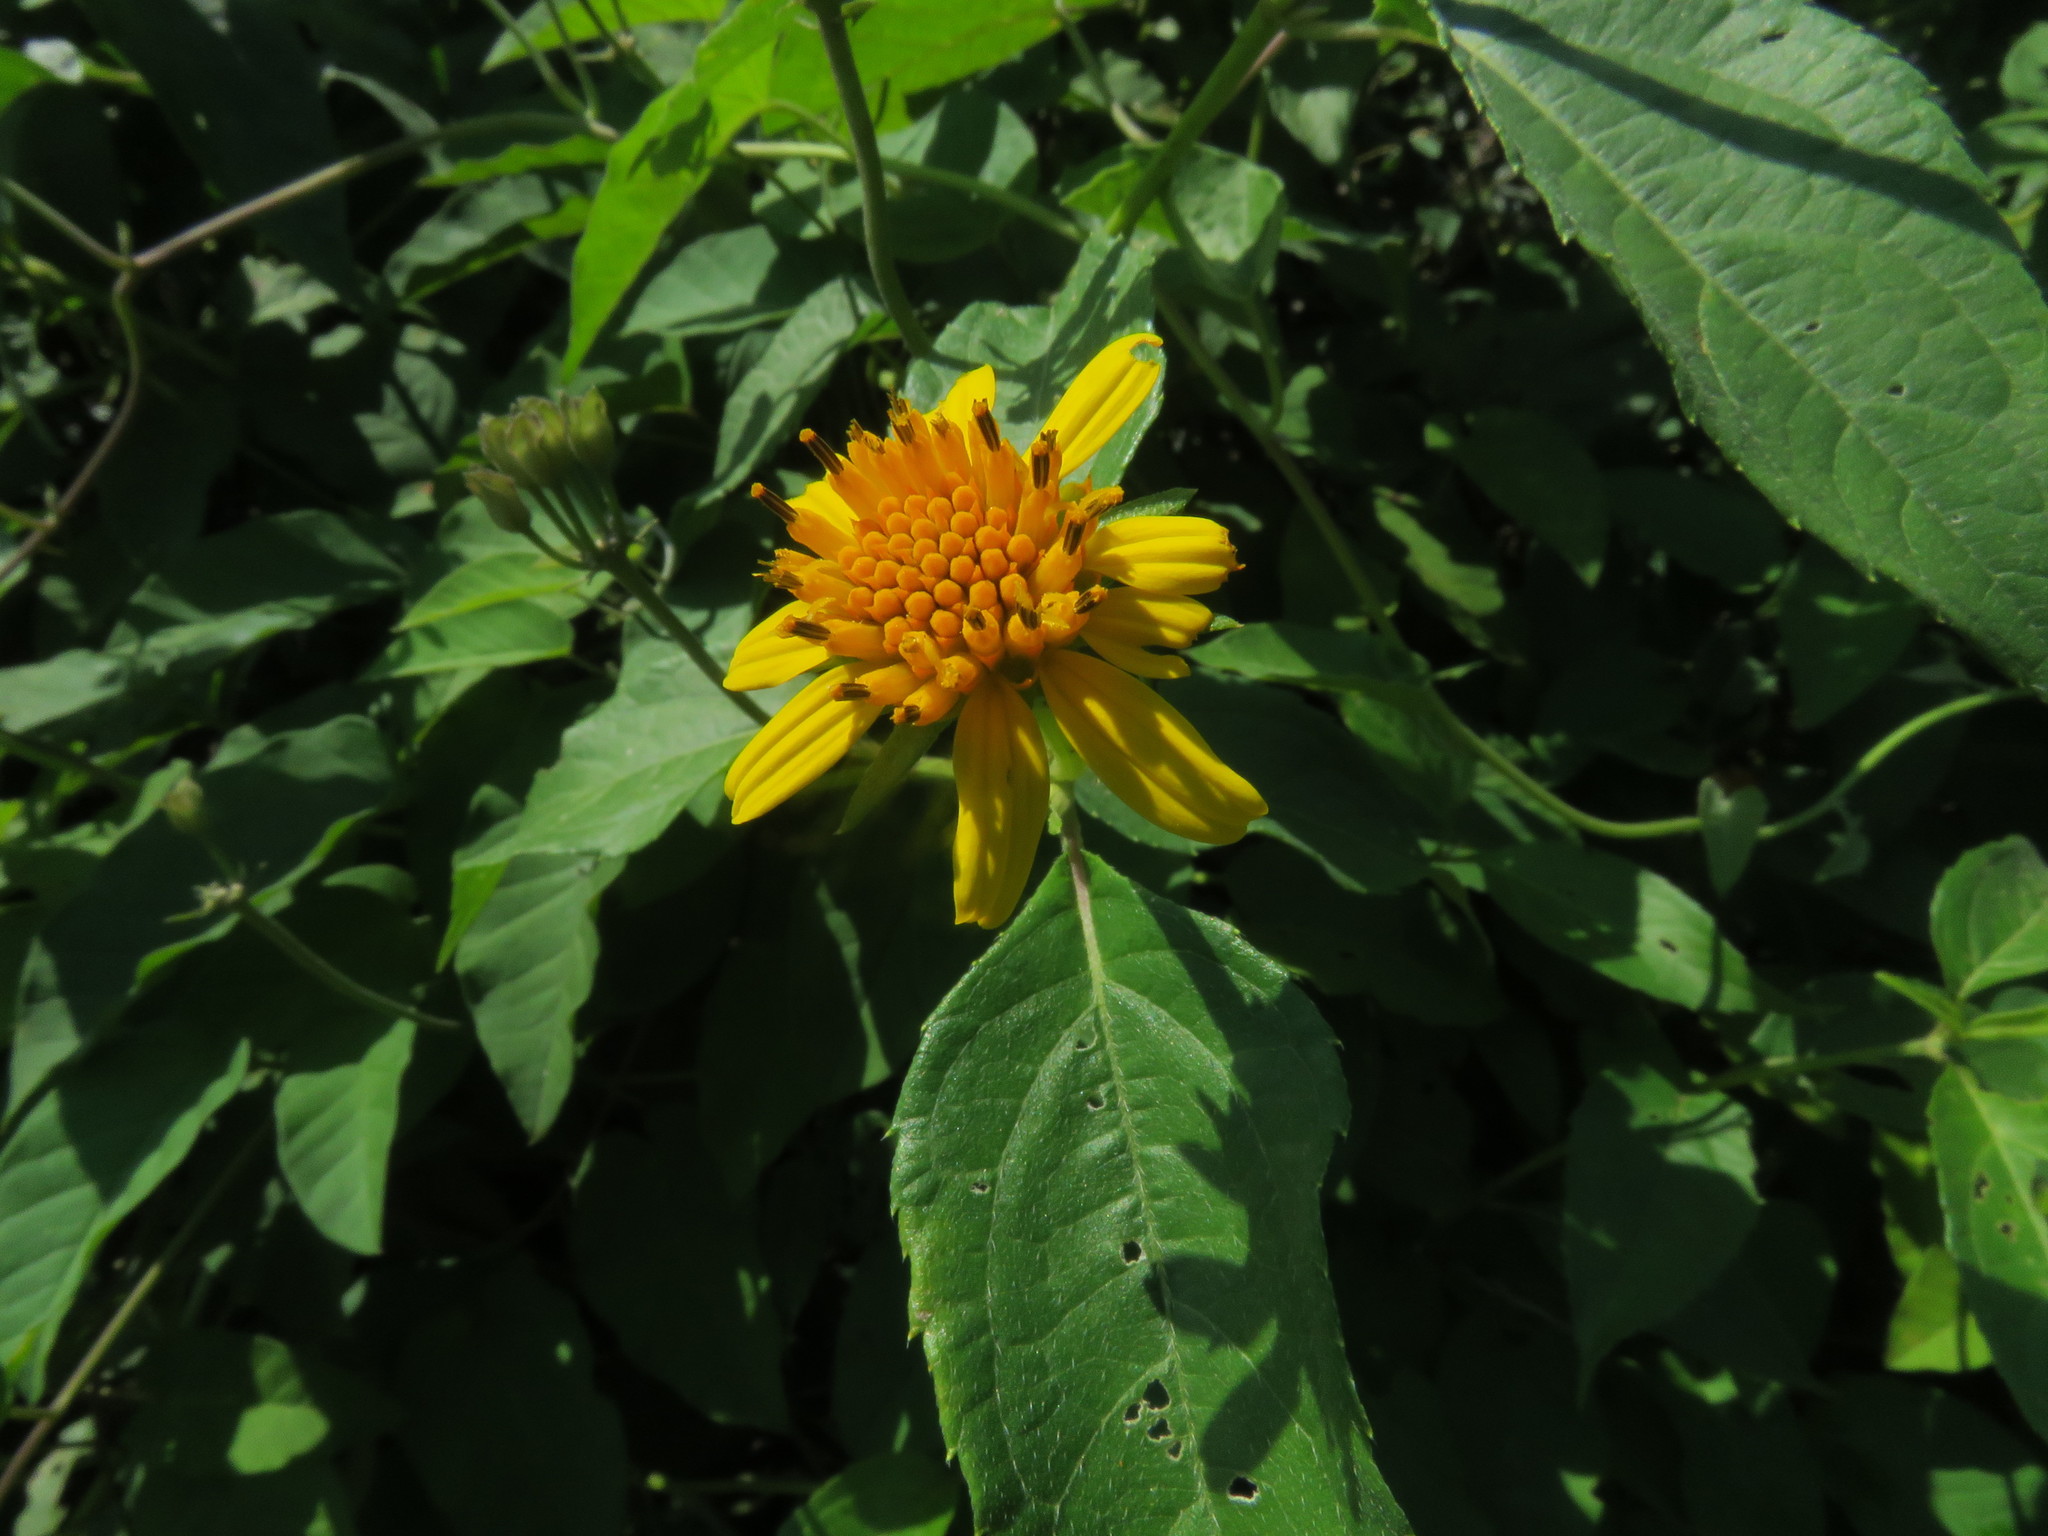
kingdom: Plantae
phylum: Tracheophyta
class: Magnoliopsida
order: Asterales
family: Asteraceae
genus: Tilesia
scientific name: Tilesia baccata
